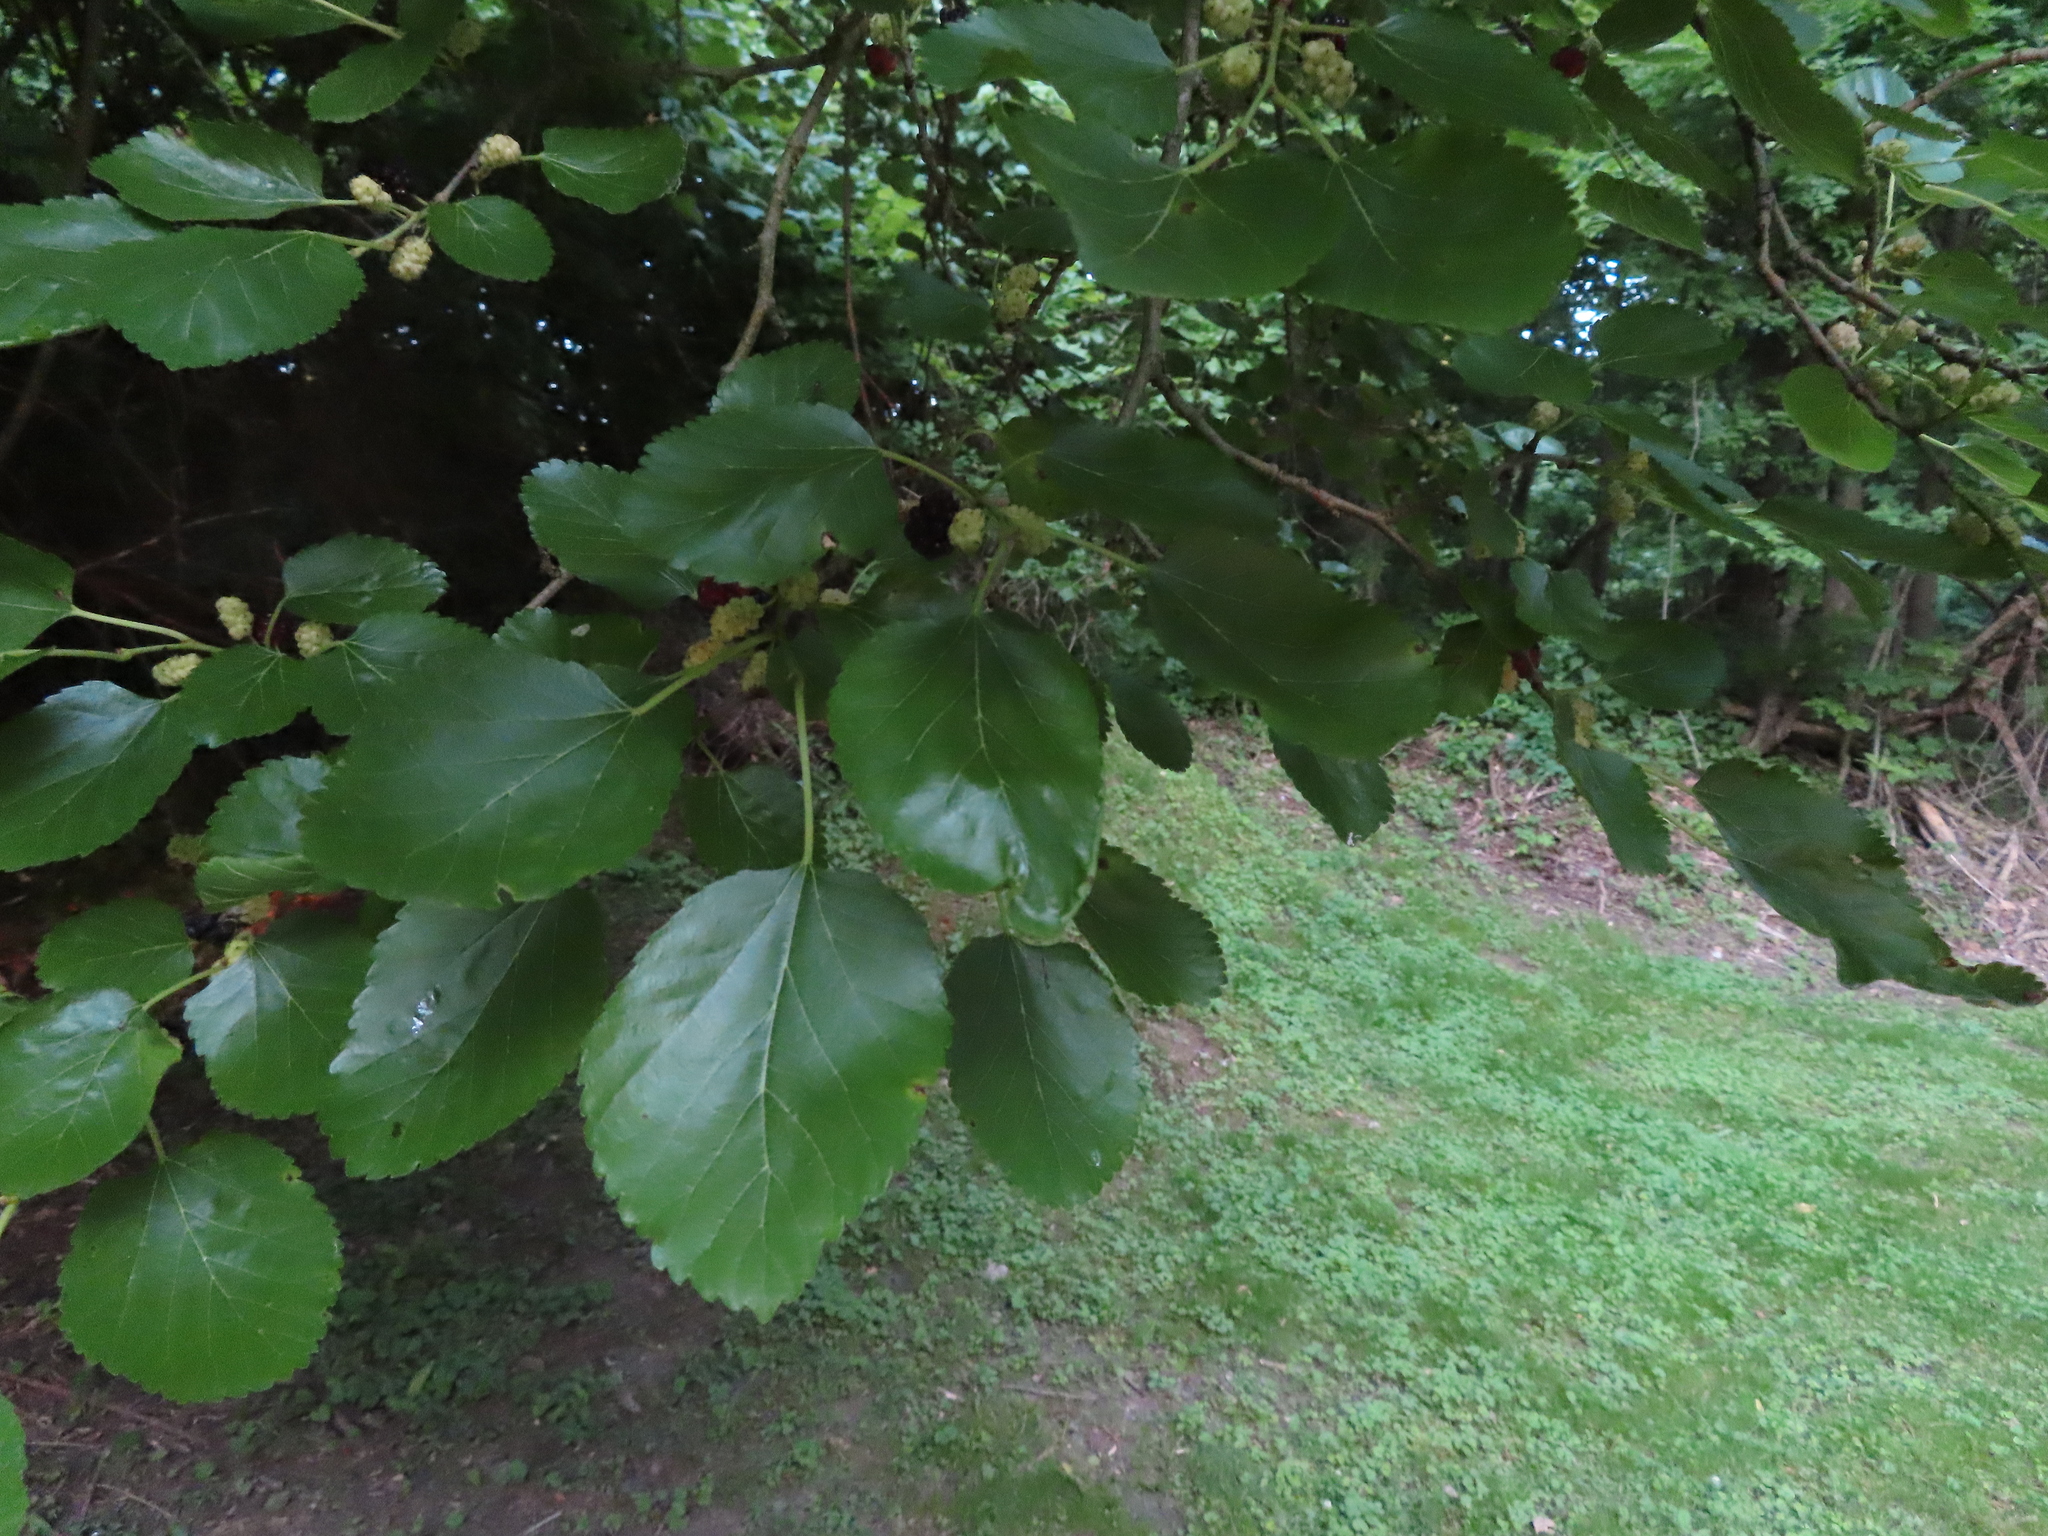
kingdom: Plantae
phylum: Tracheophyta
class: Magnoliopsida
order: Rosales
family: Moraceae
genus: Morus
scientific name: Morus alba
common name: White mulberry
